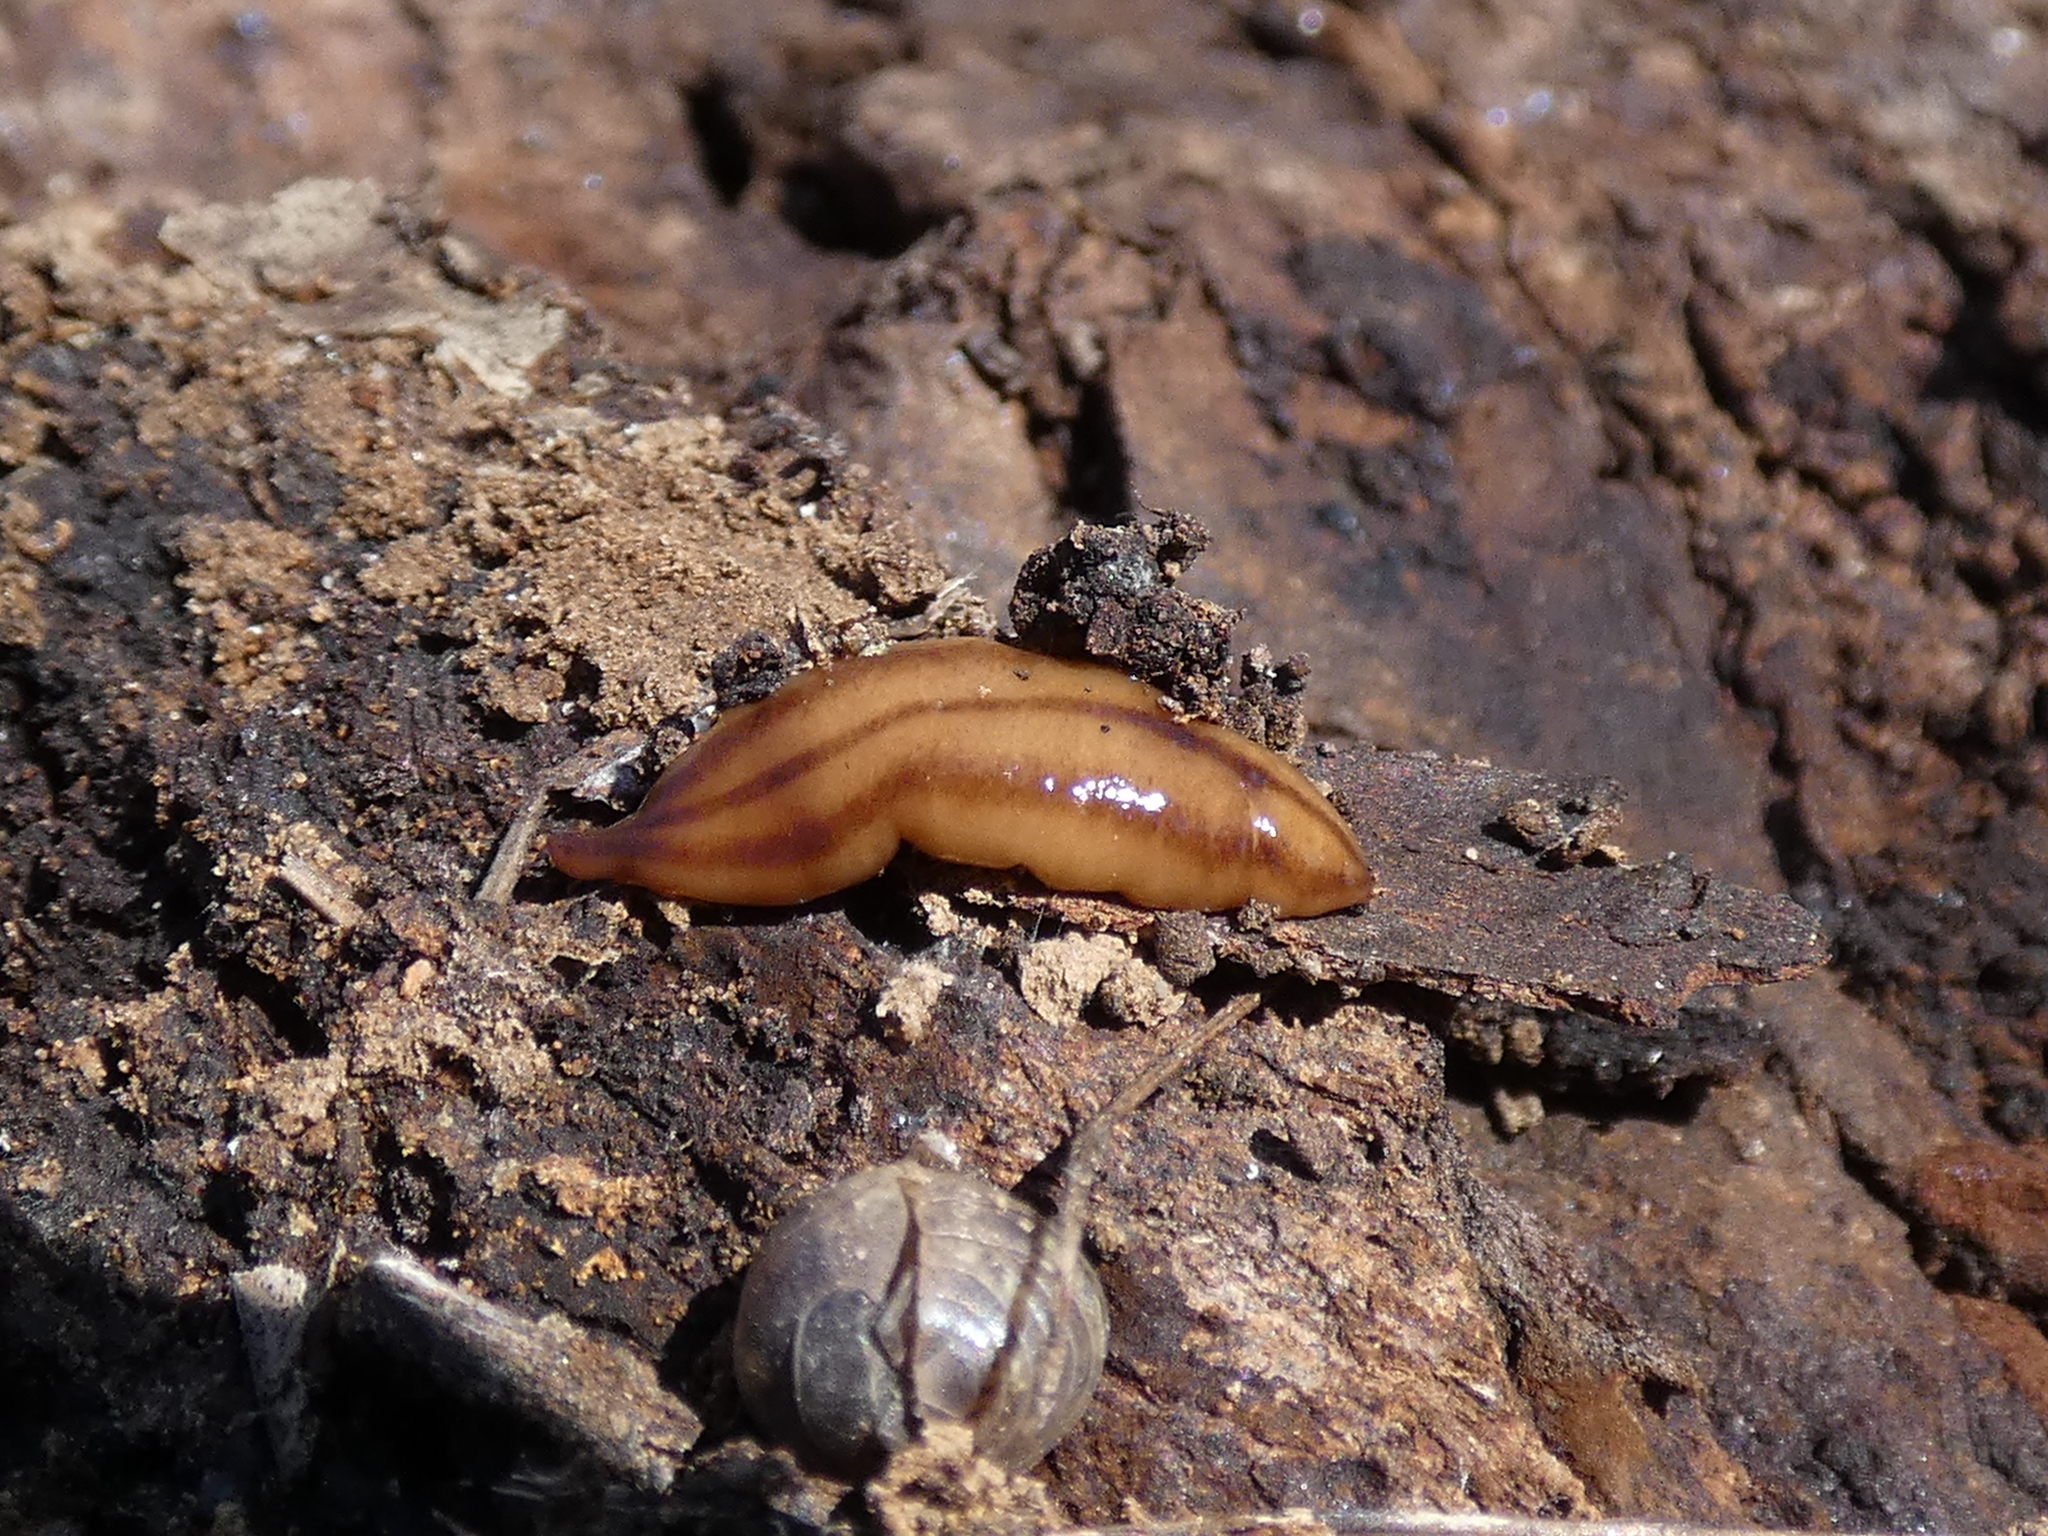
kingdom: Animalia
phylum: Platyhelminthes
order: Tricladida
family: Geoplanidae
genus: Anzoplana
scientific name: Anzoplana trilineata
